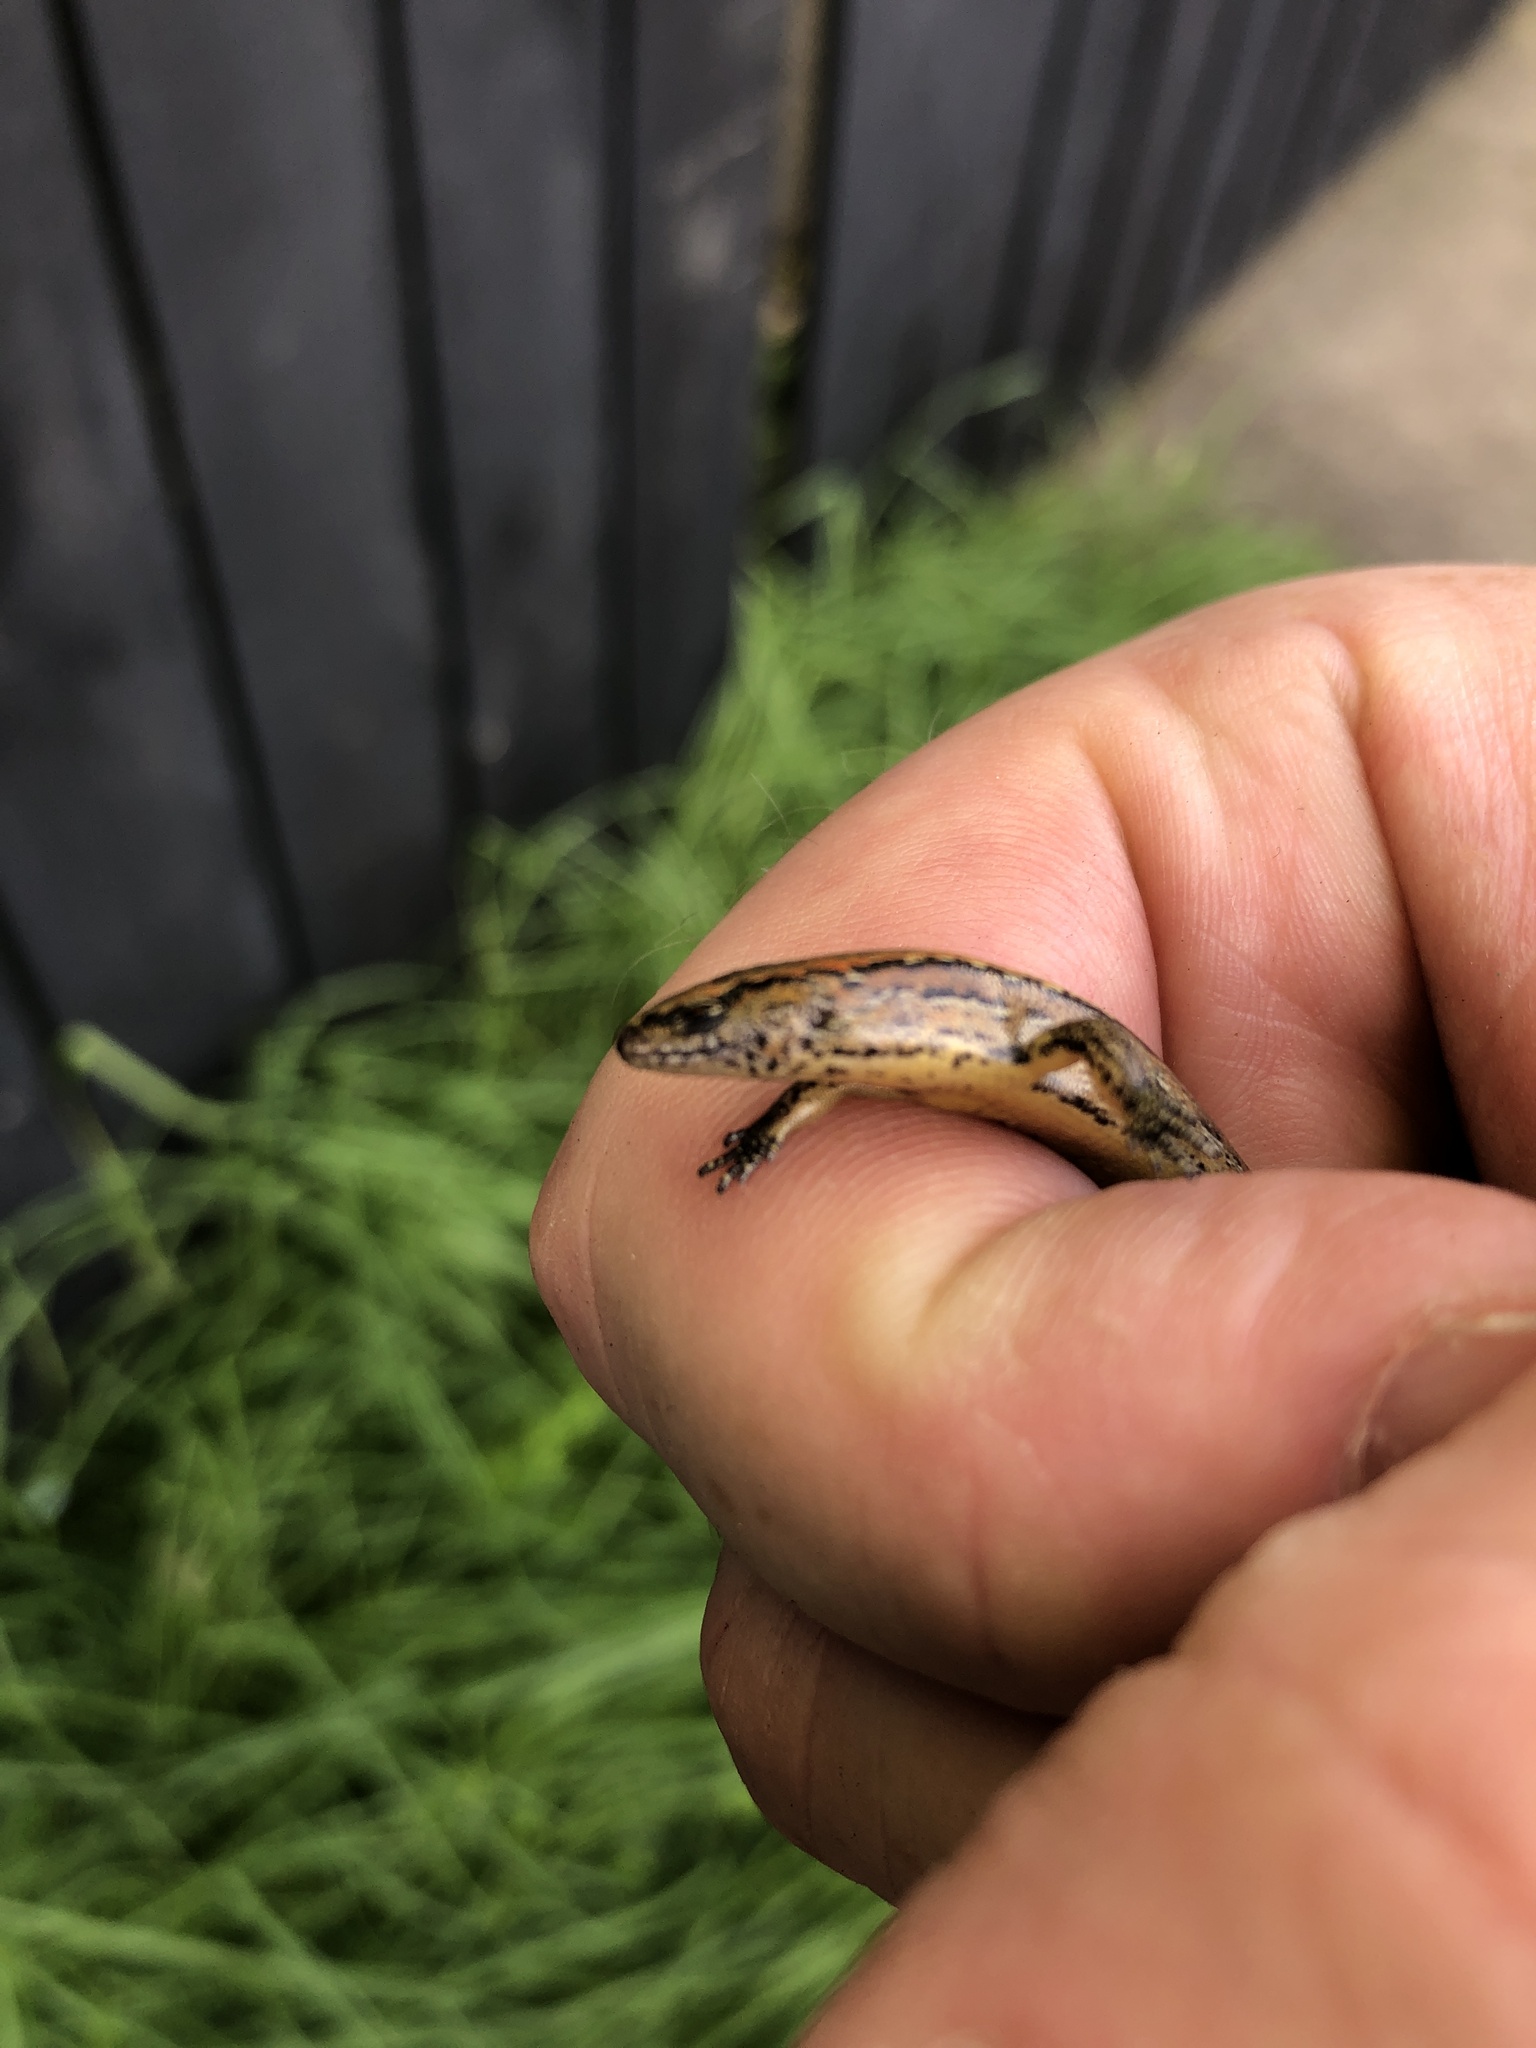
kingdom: Animalia
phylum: Chordata
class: Squamata
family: Scincidae
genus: Oligosoma
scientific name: Oligosoma aeneum
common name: Copper skink
